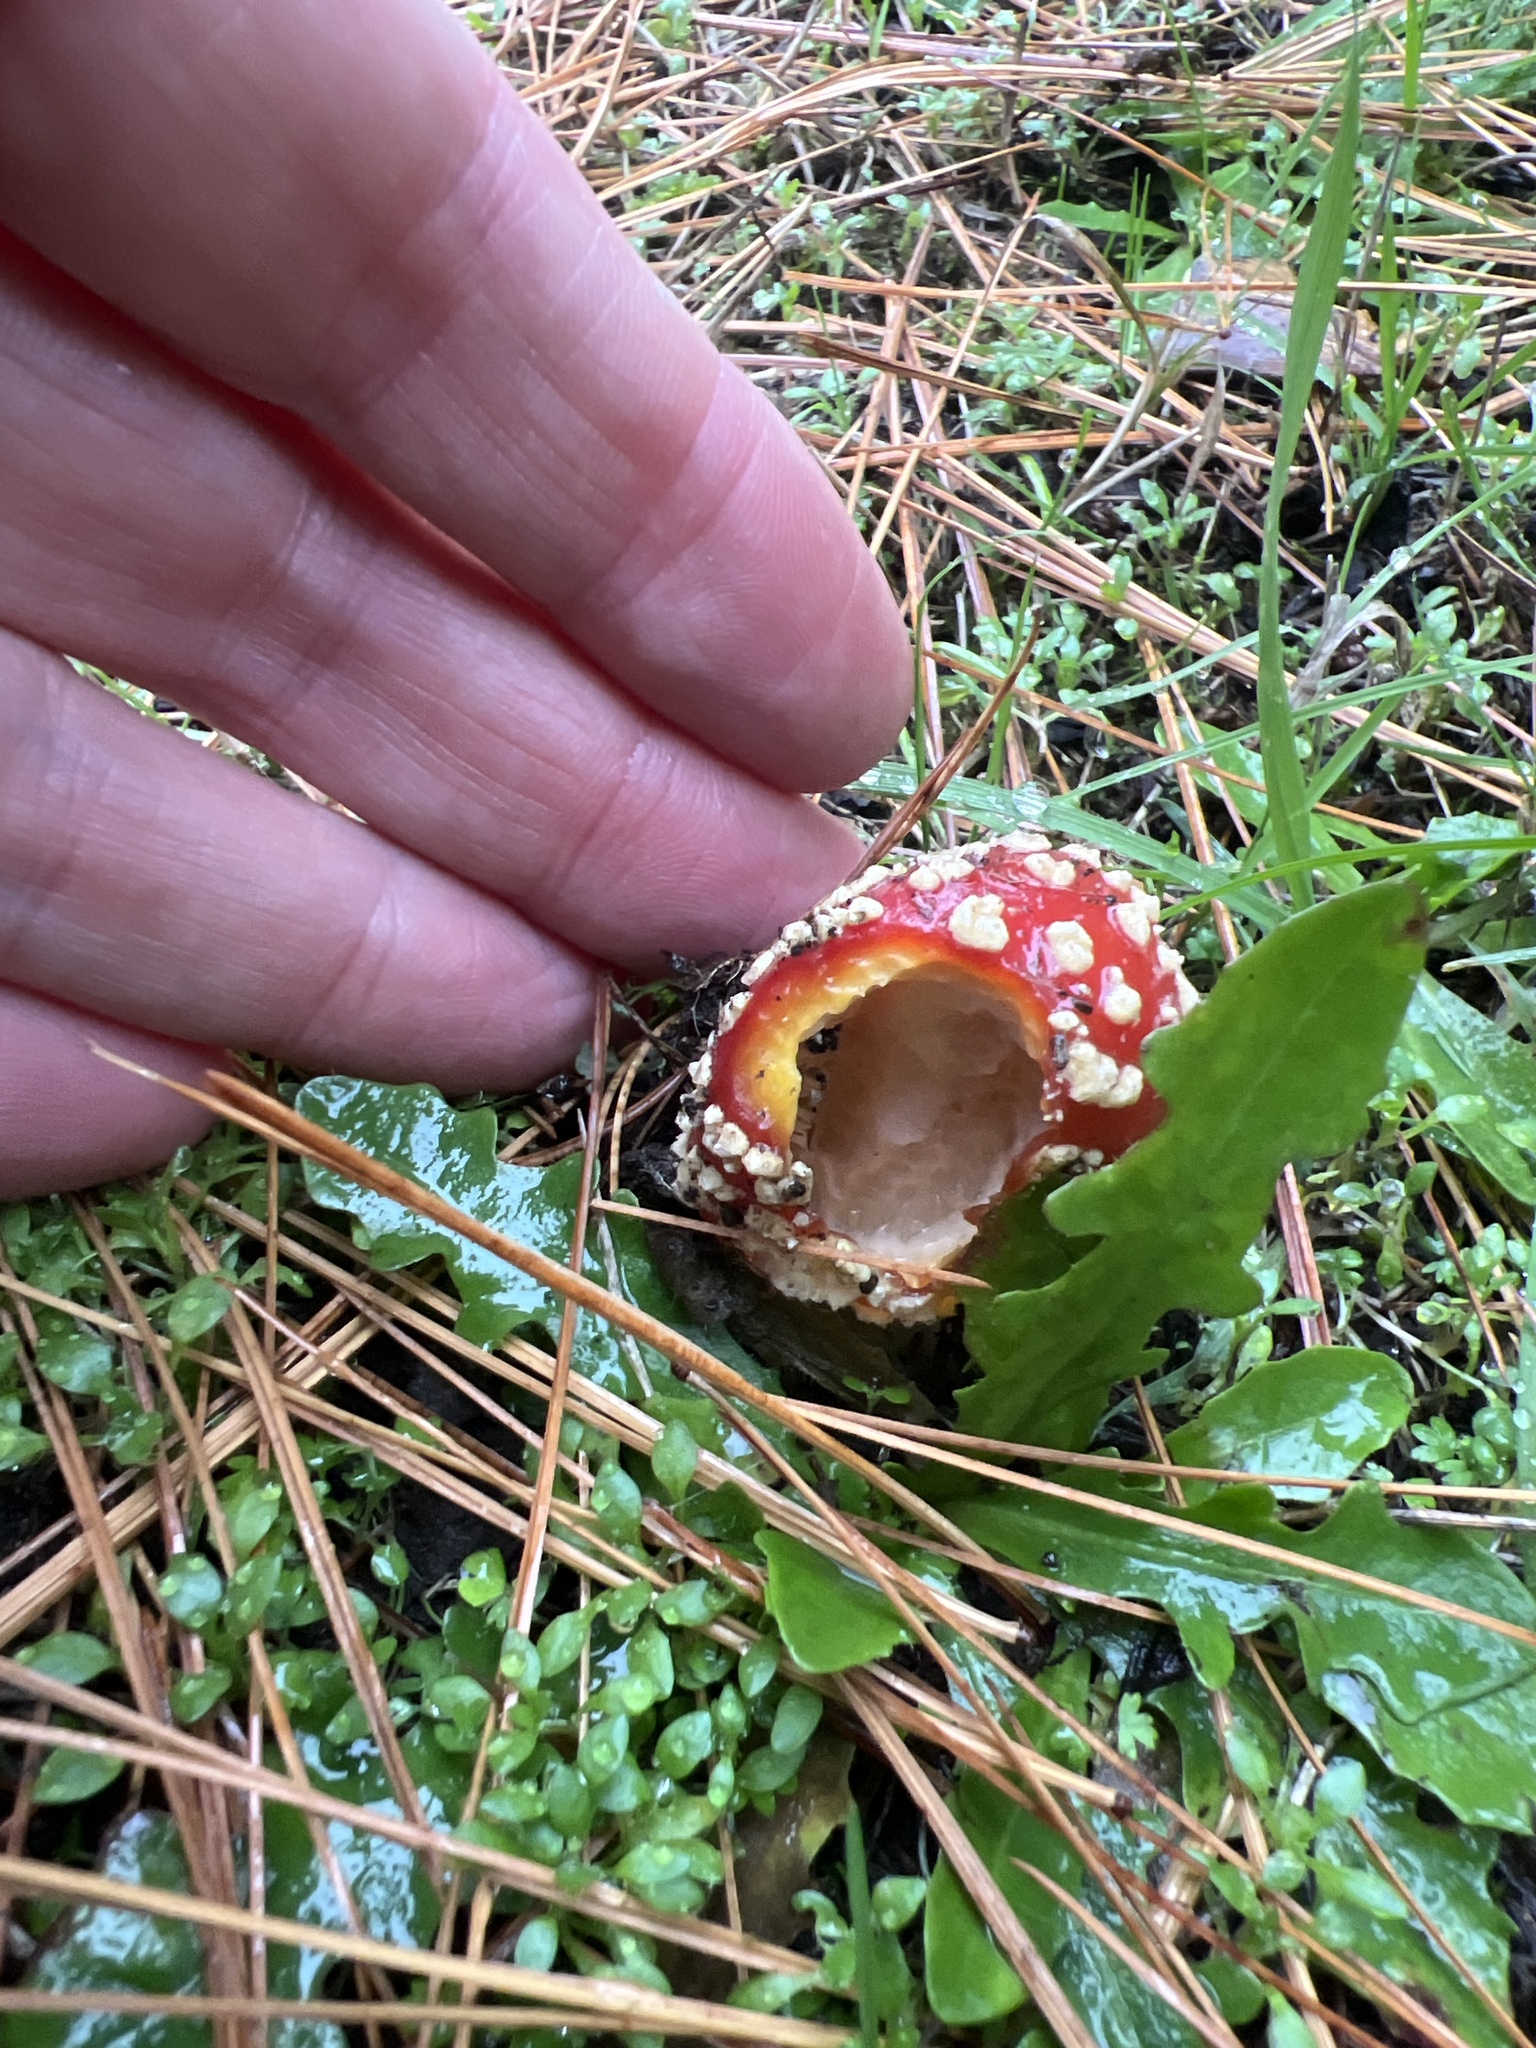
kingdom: Fungi
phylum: Basidiomycota
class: Agaricomycetes
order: Agaricales
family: Amanitaceae
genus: Amanita
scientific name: Amanita muscaria
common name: Fly agaric
